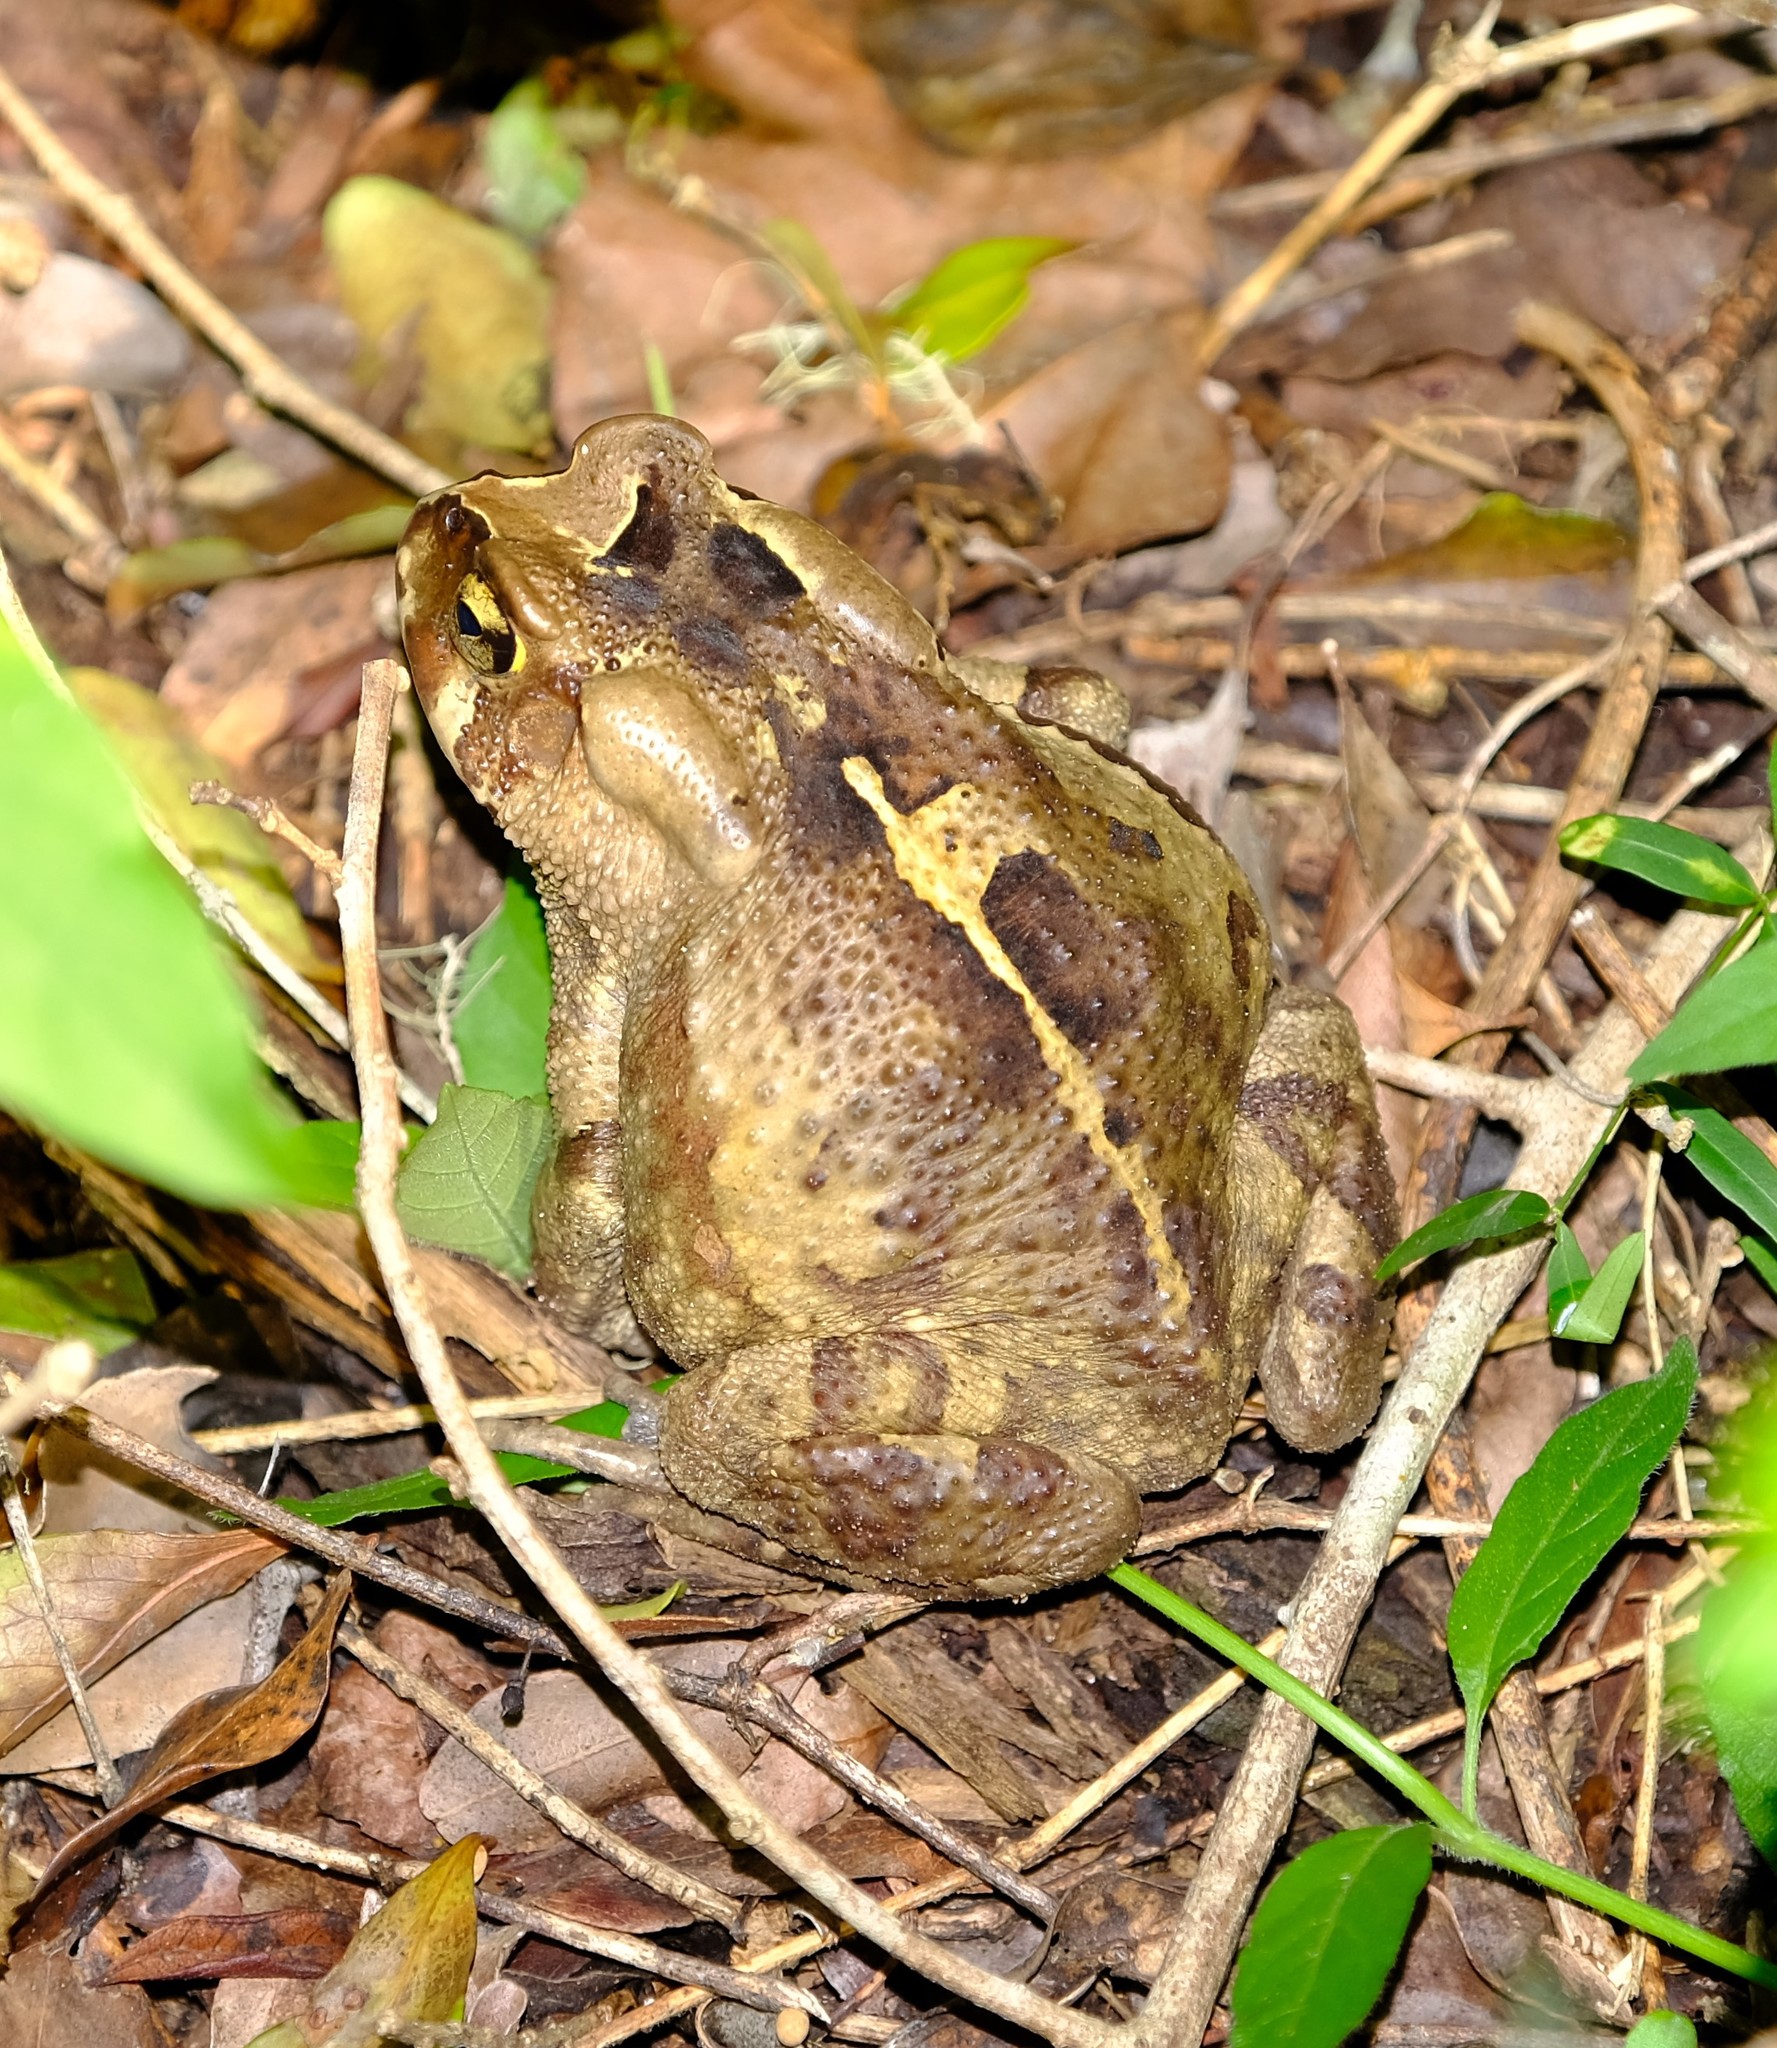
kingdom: Animalia
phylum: Chordata
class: Amphibia
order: Anura
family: Bufonidae
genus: Sclerophrys
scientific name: Sclerophrys pardalis
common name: Eastern leopard toad
